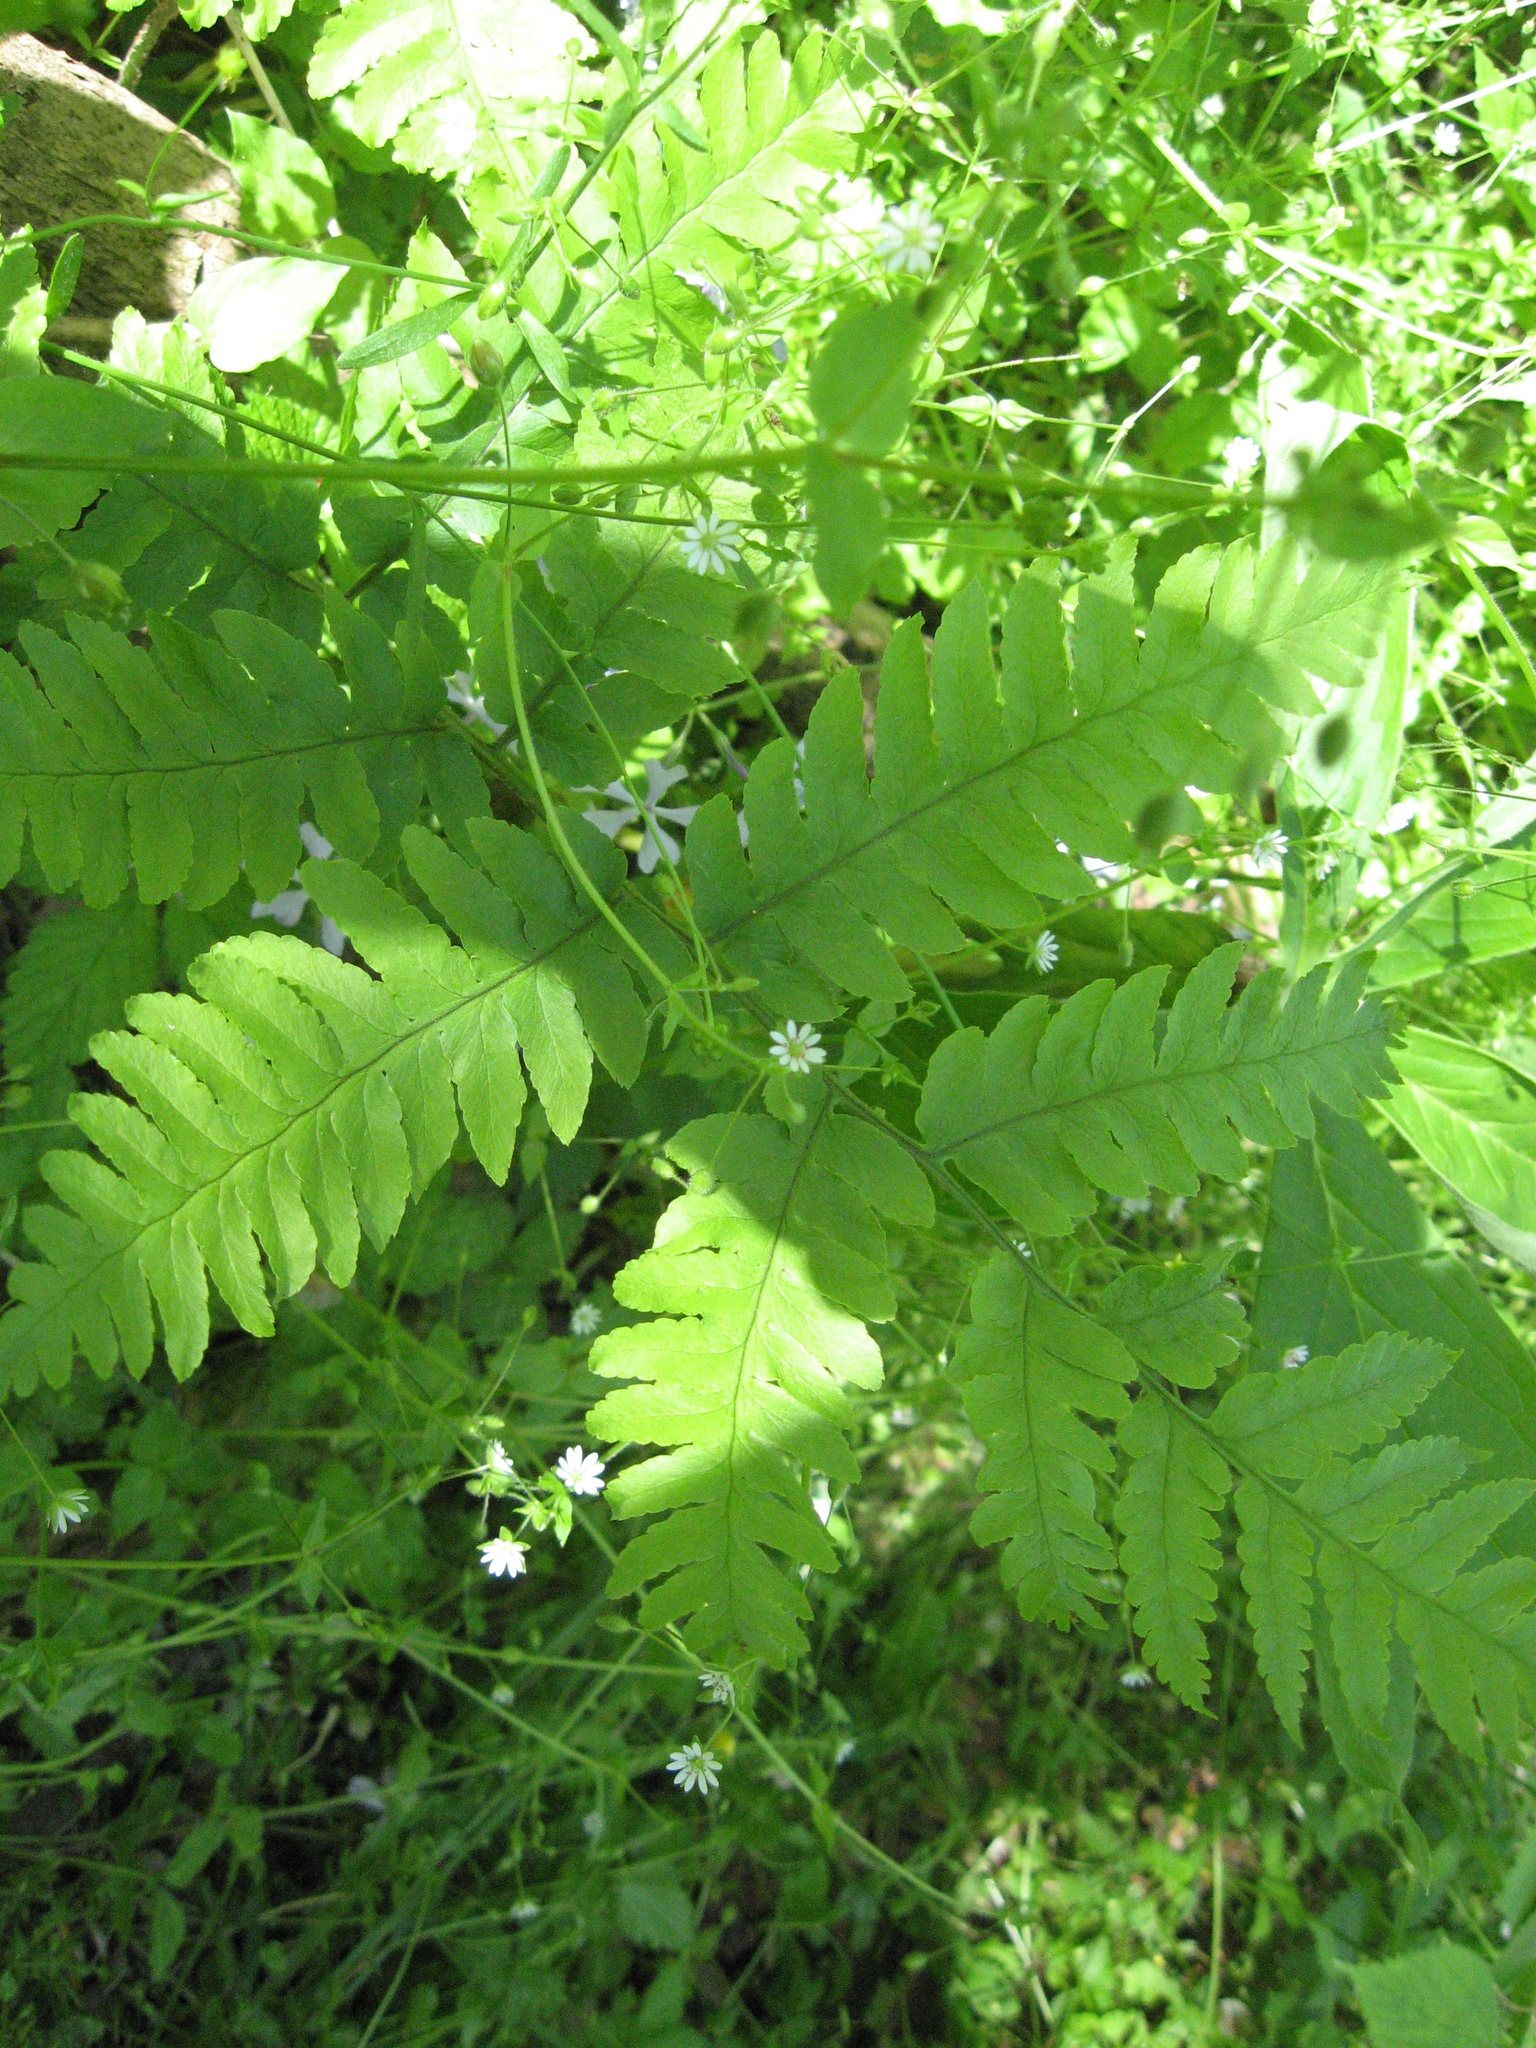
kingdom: Plantae
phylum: Tracheophyta
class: Polypodiopsida
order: Polypodiales
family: Dryopteridaceae
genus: Dryopteris
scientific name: Dryopteris goldieana
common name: Goldie's fern
